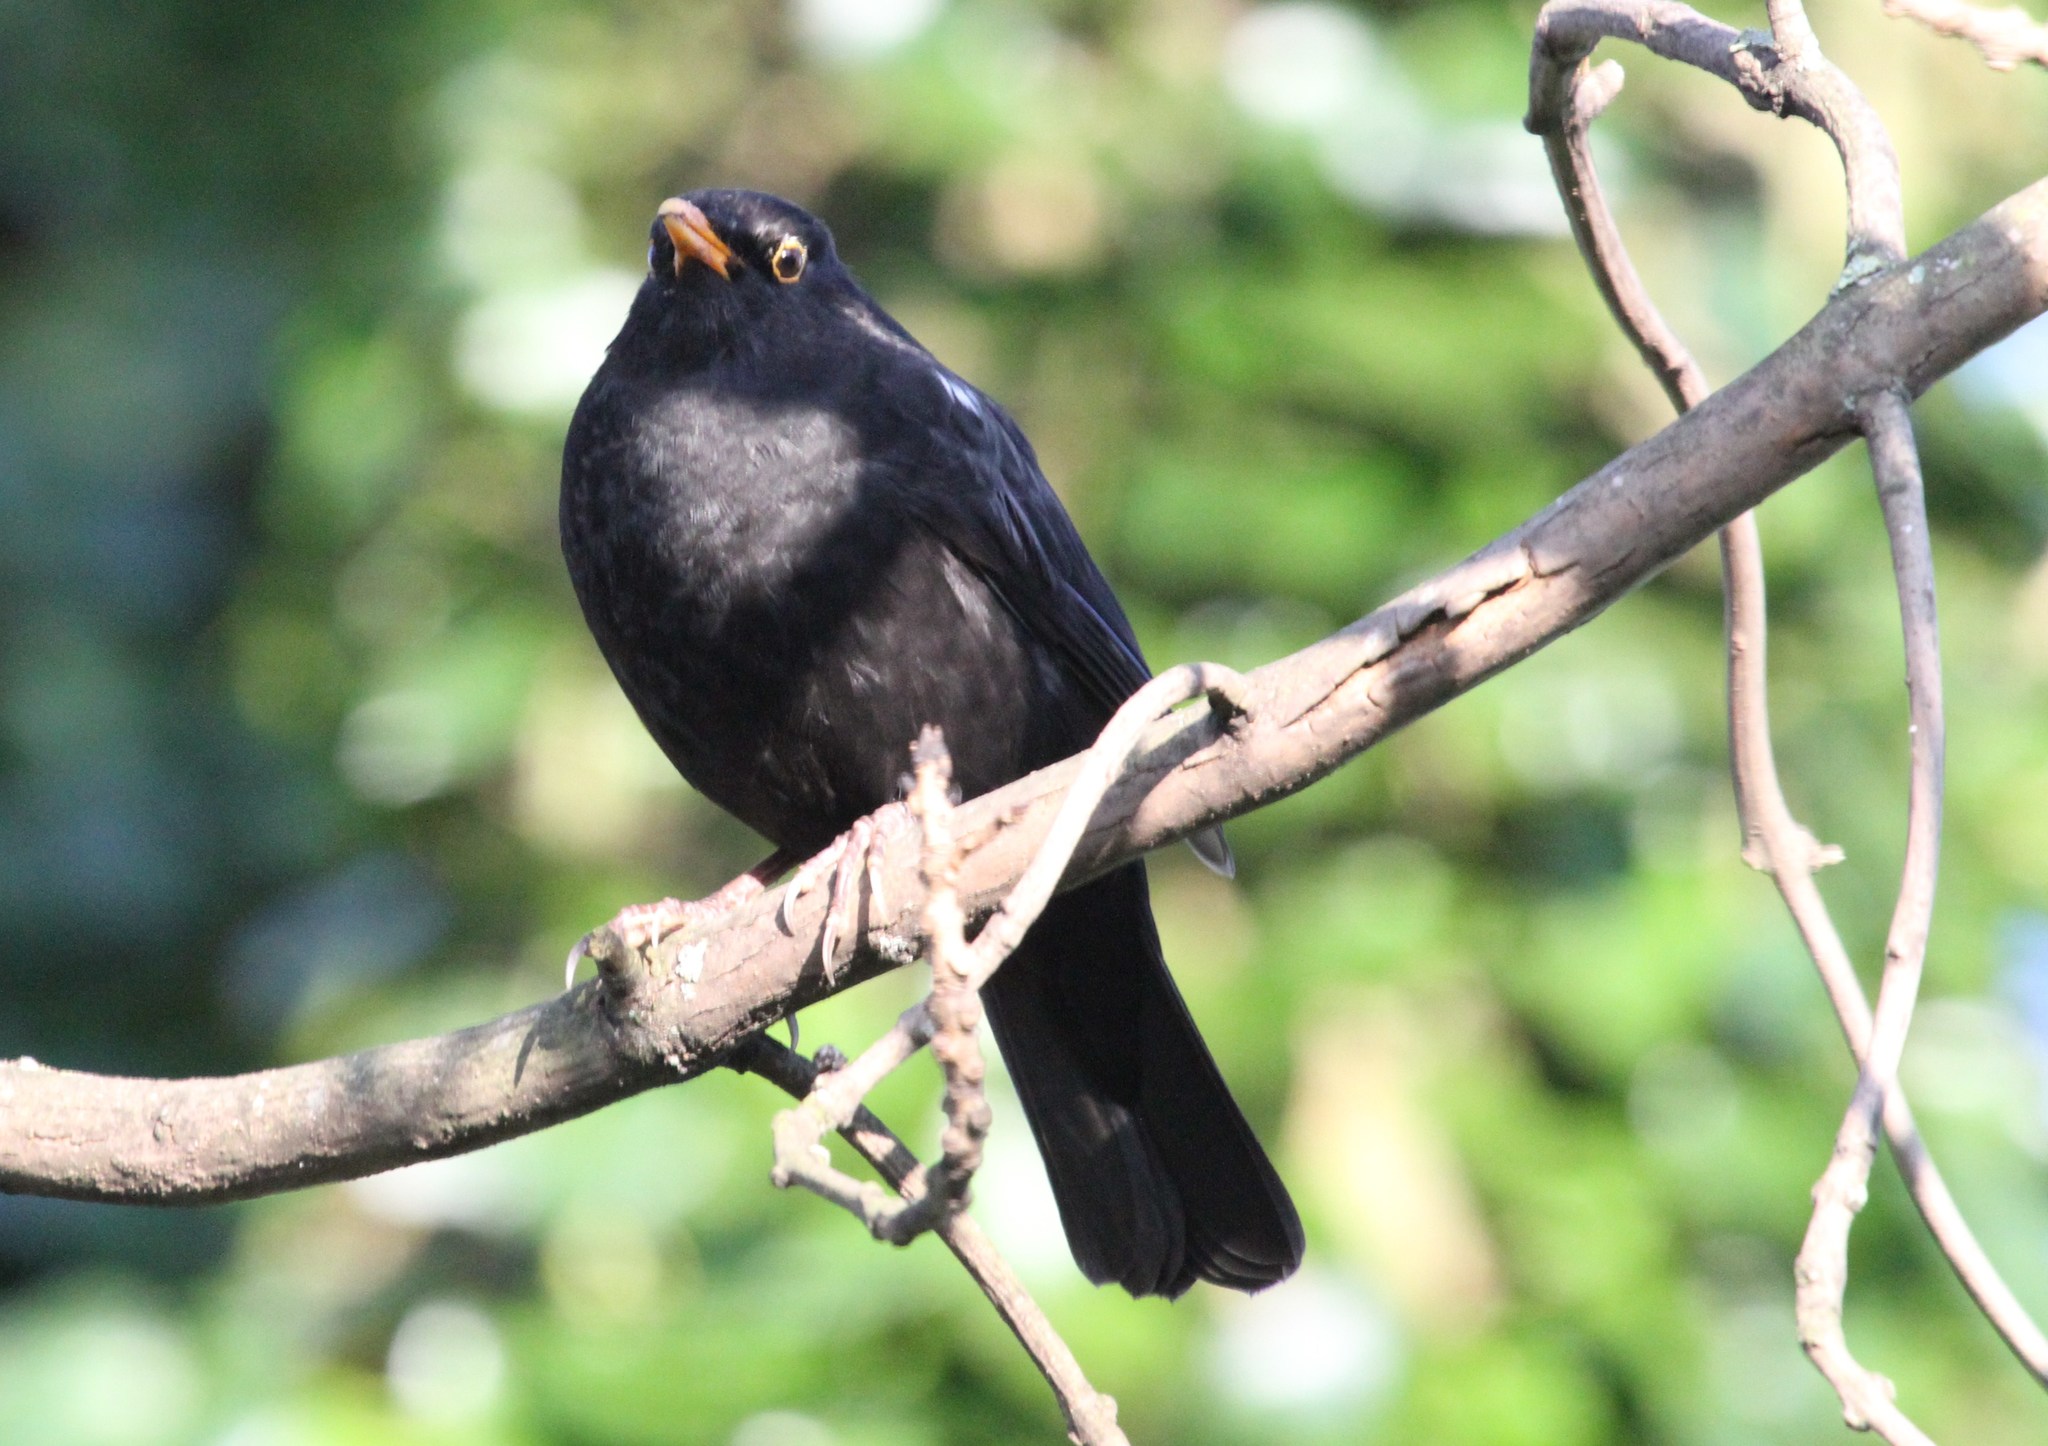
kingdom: Animalia
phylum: Chordata
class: Aves
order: Passeriformes
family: Turdidae
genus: Turdus
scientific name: Turdus merula
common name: Common blackbird
